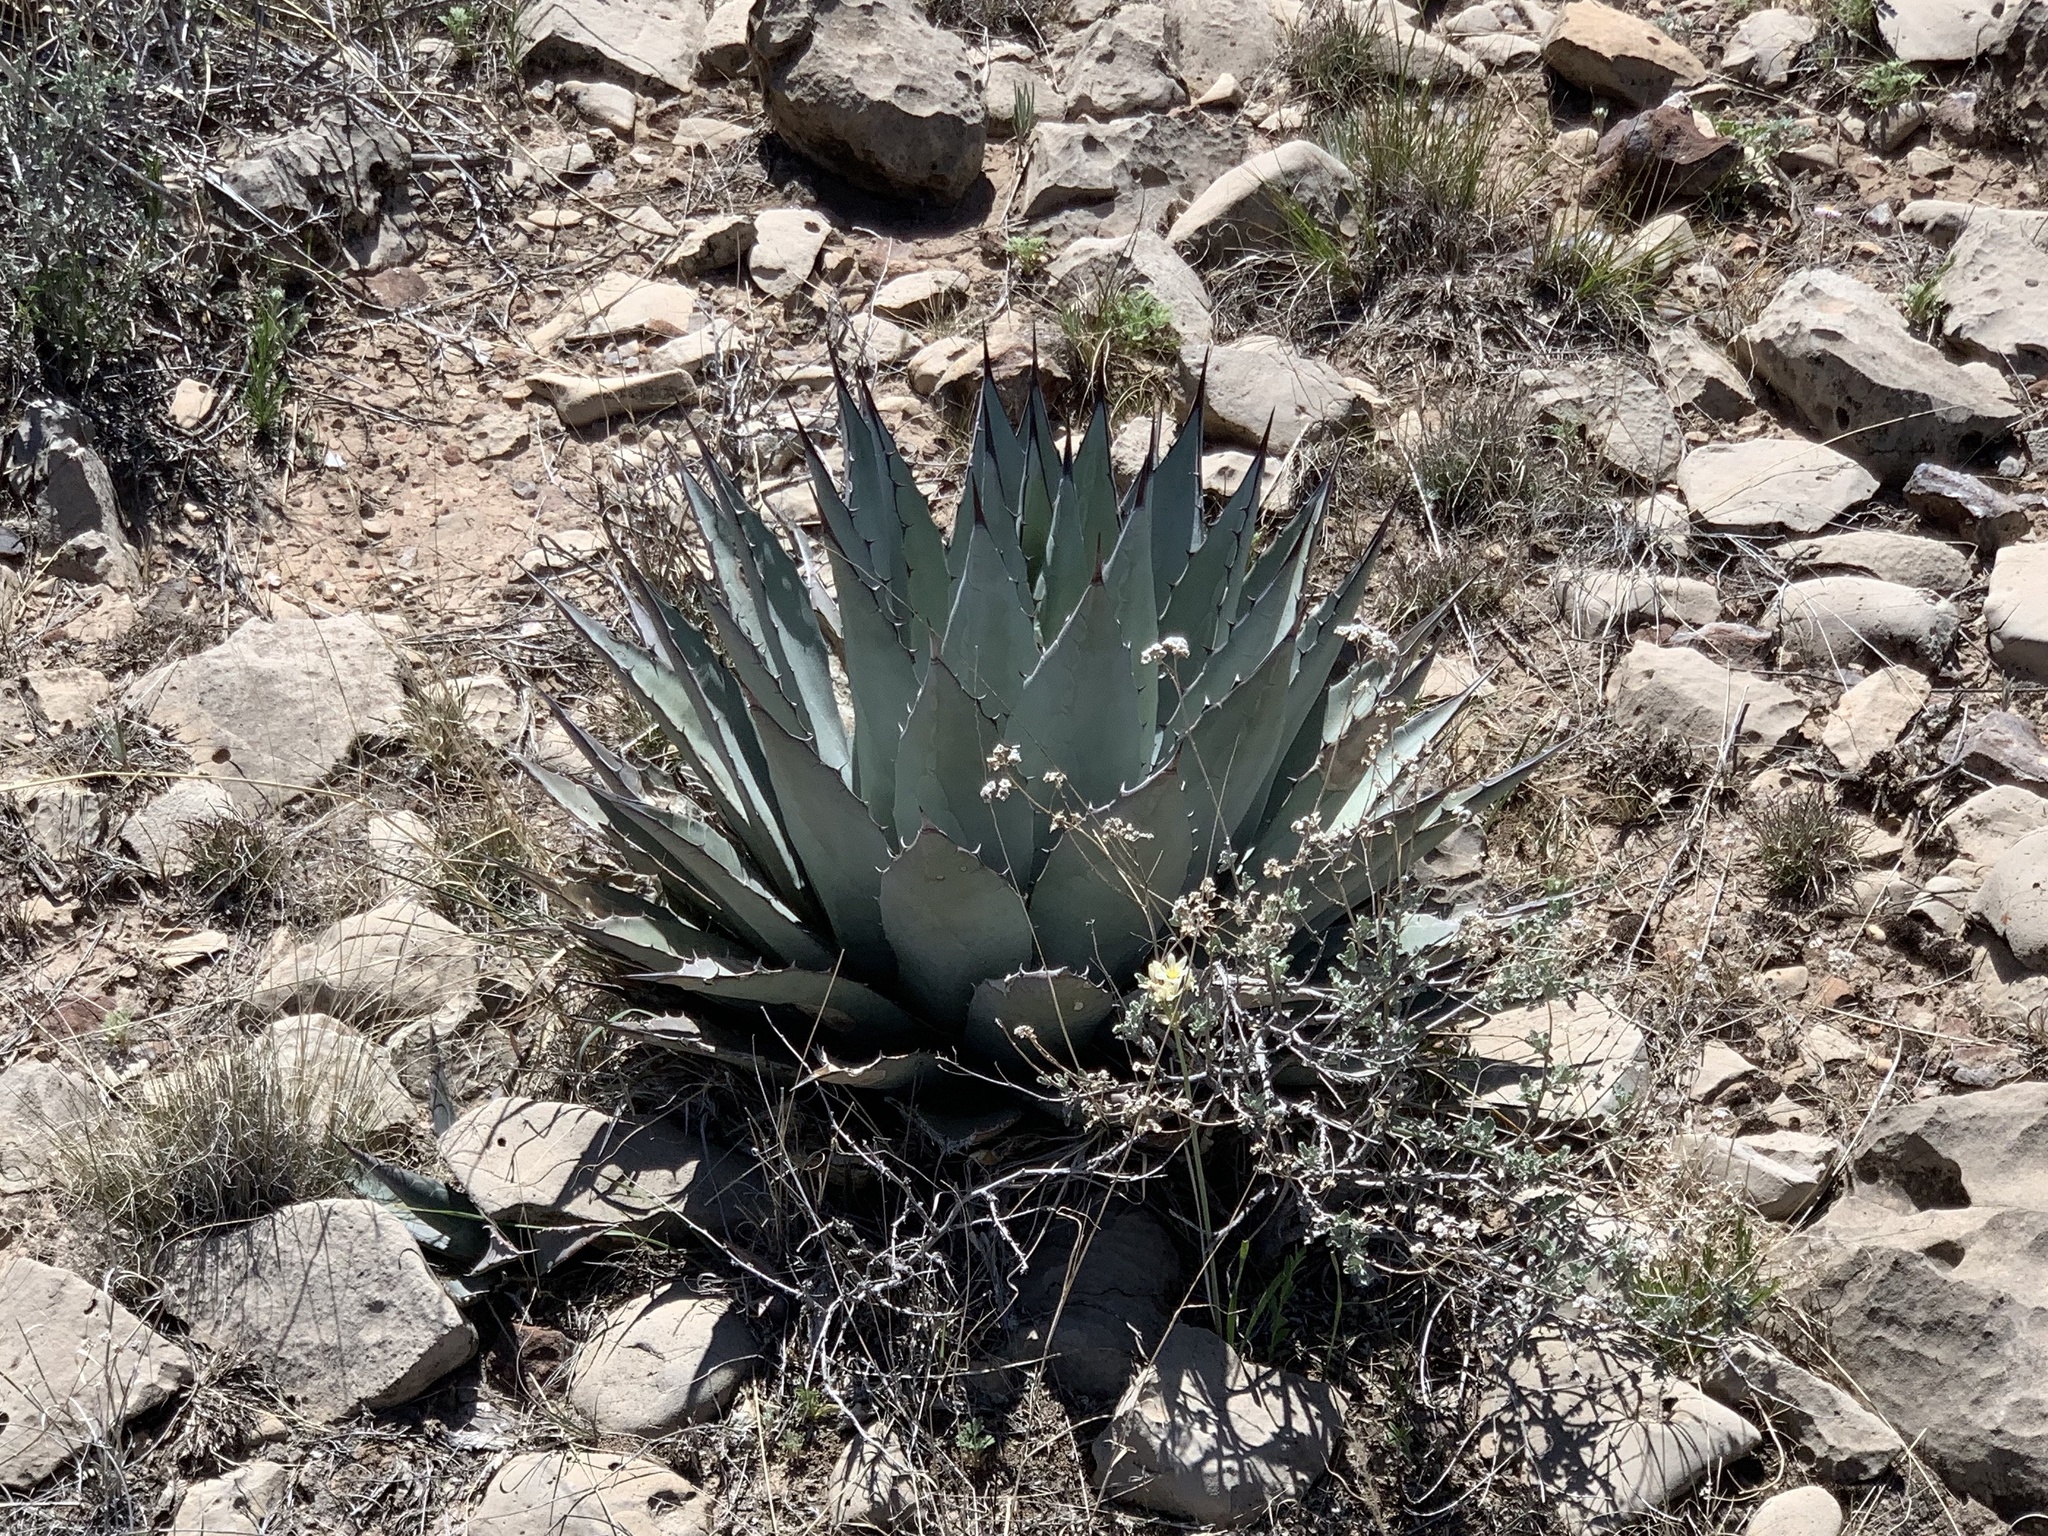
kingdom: Plantae
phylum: Tracheophyta
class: Liliopsida
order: Asparagales
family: Asparagaceae
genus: Agave
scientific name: Agave parryi
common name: Parry's agave
